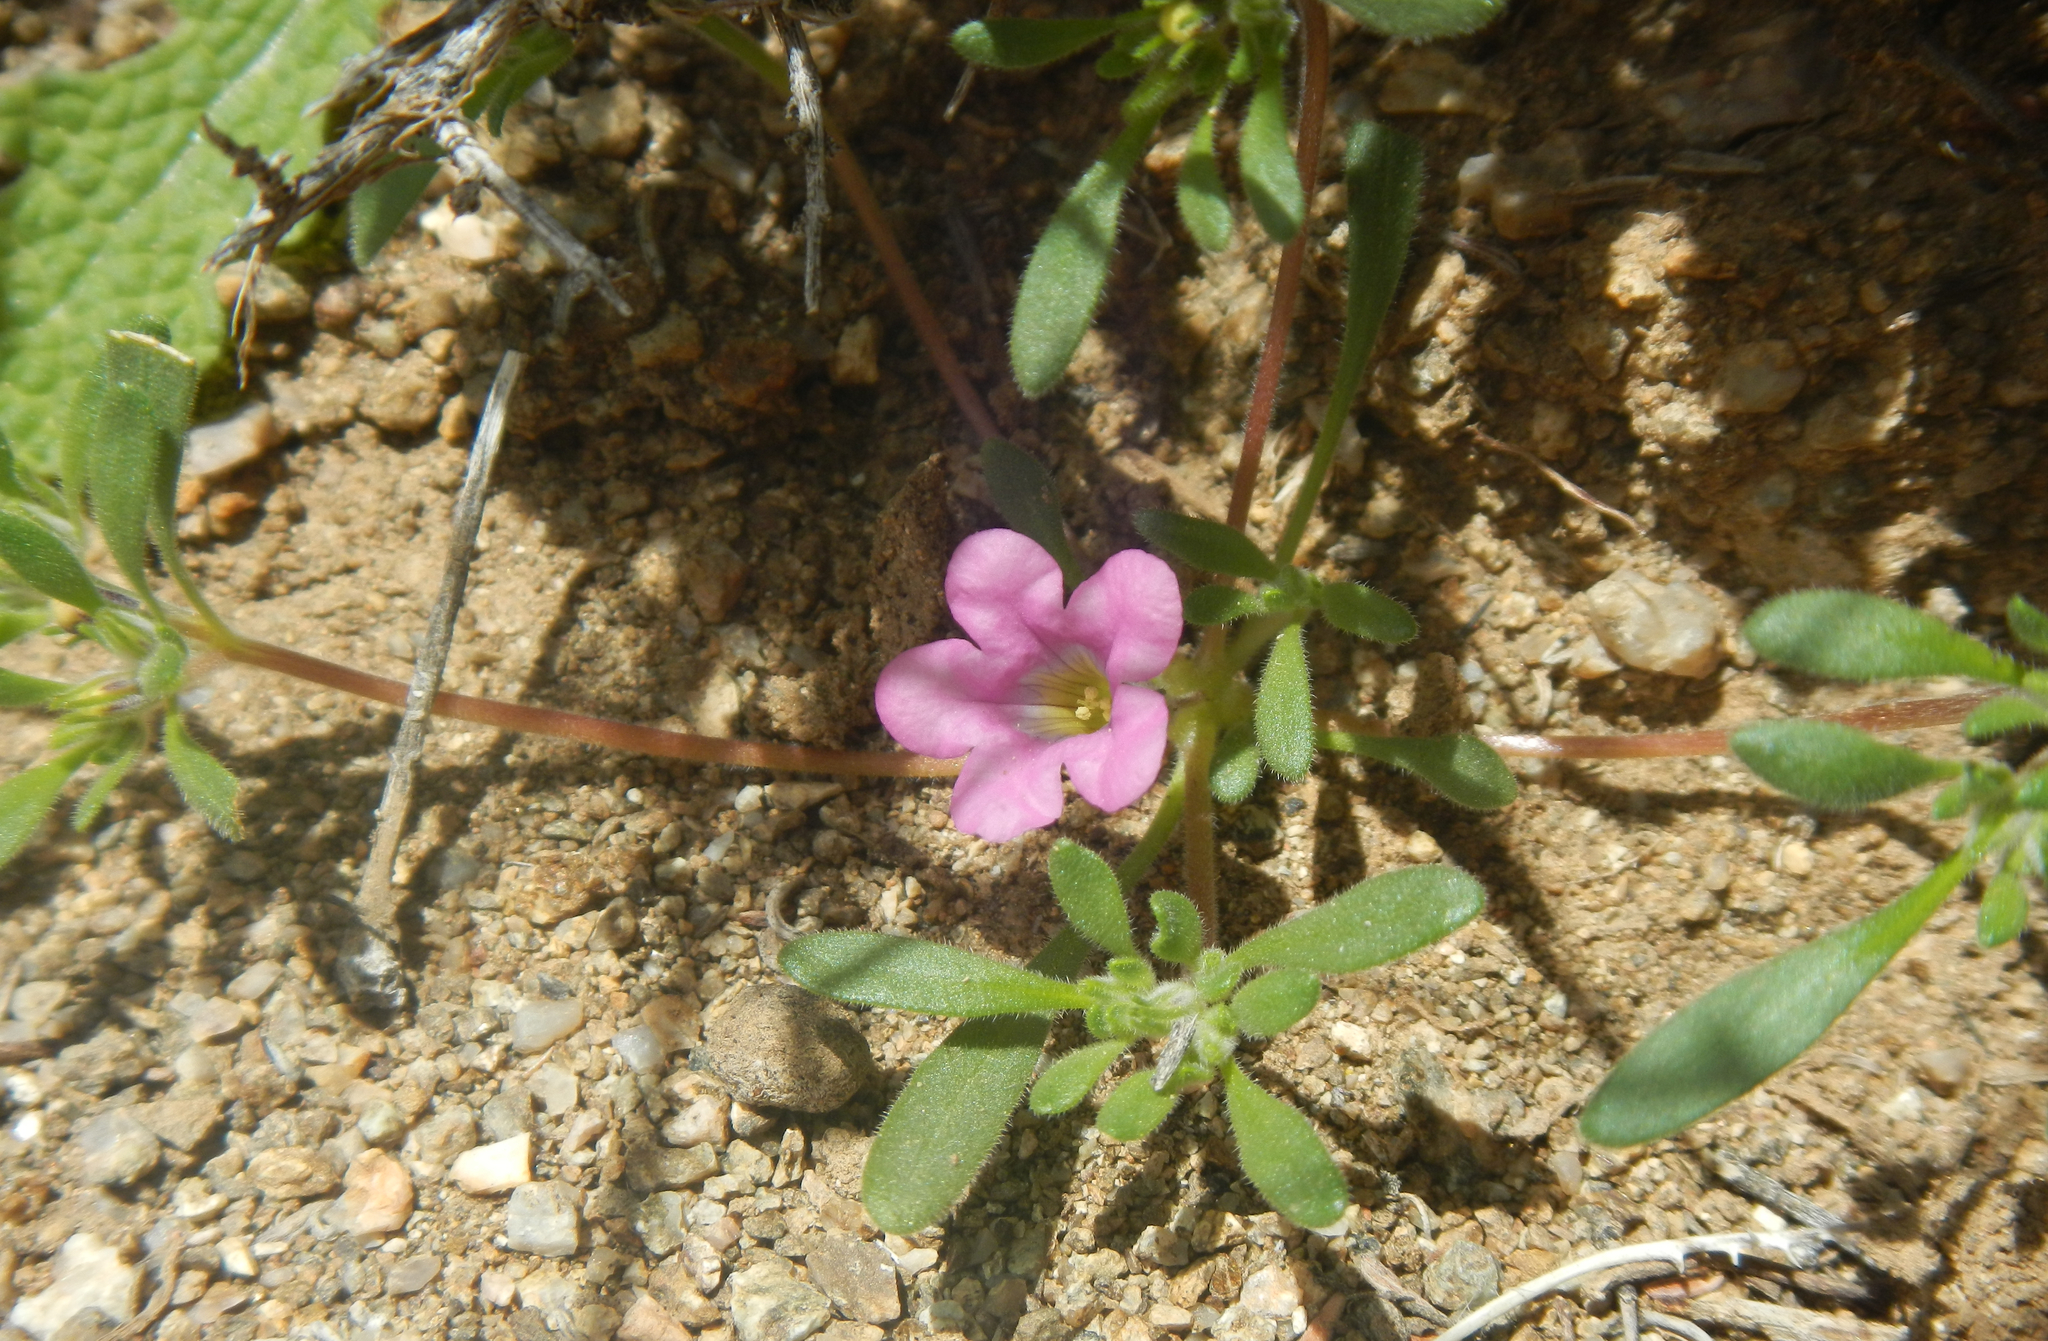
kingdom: Plantae
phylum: Tracheophyta
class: Magnoliopsida
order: Boraginales
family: Namaceae
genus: Nama
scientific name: Nama demissa
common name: Leafy nama
